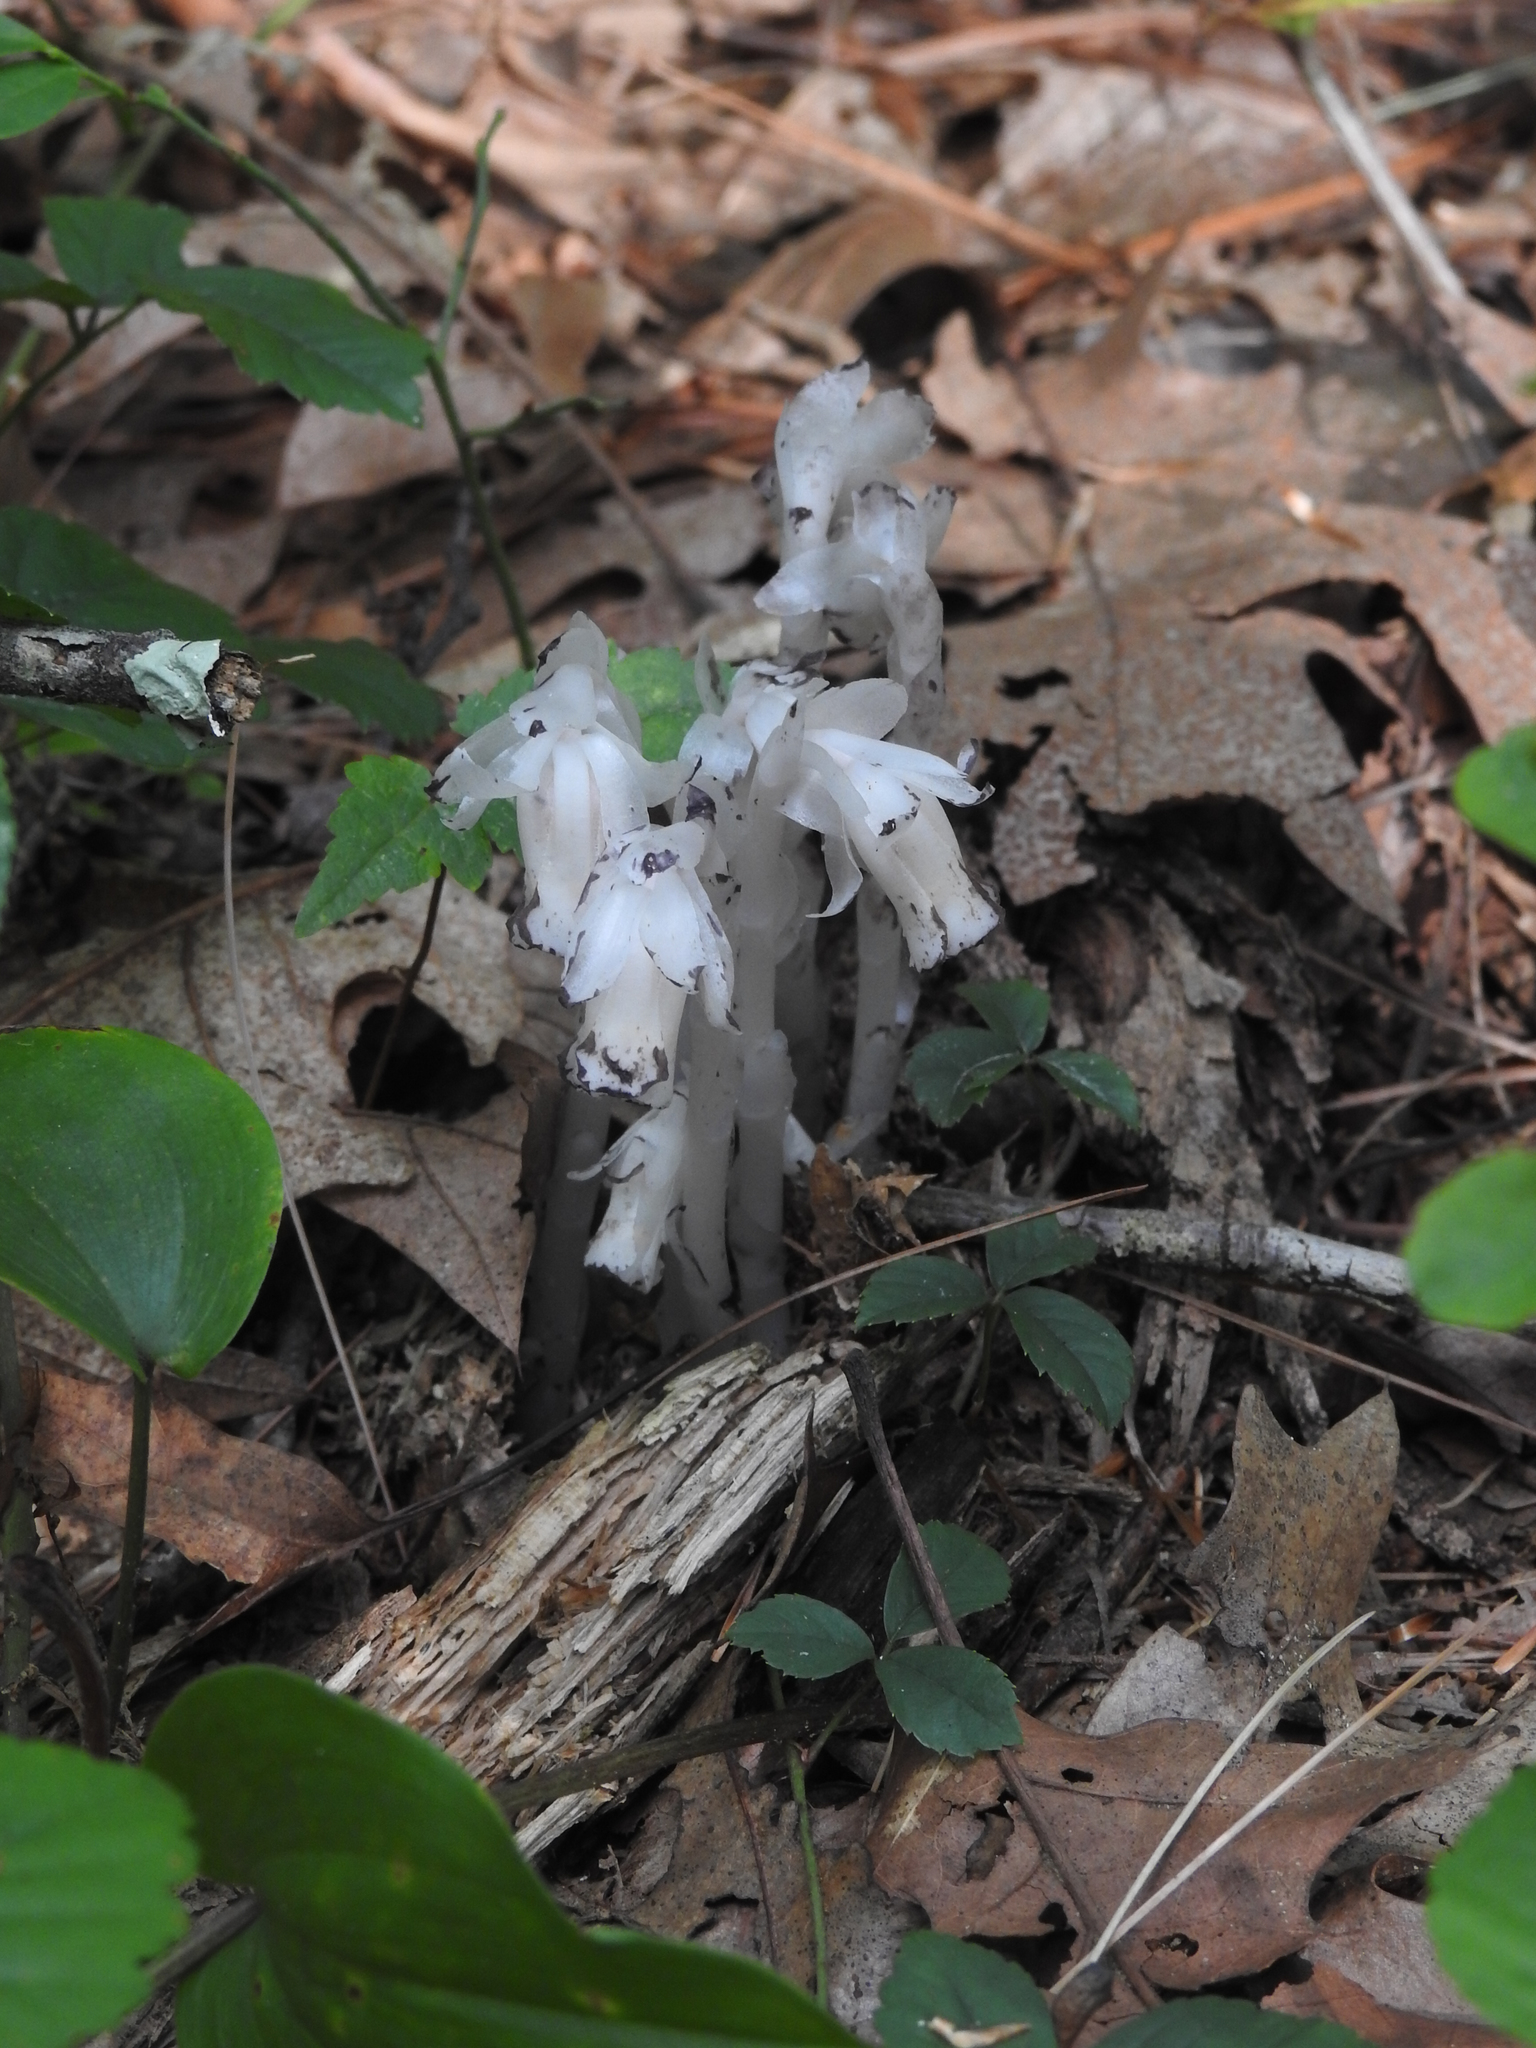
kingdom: Plantae
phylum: Tracheophyta
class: Magnoliopsida
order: Ericales
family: Ericaceae
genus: Monotropa
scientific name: Monotropa uniflora
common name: Convulsion root
